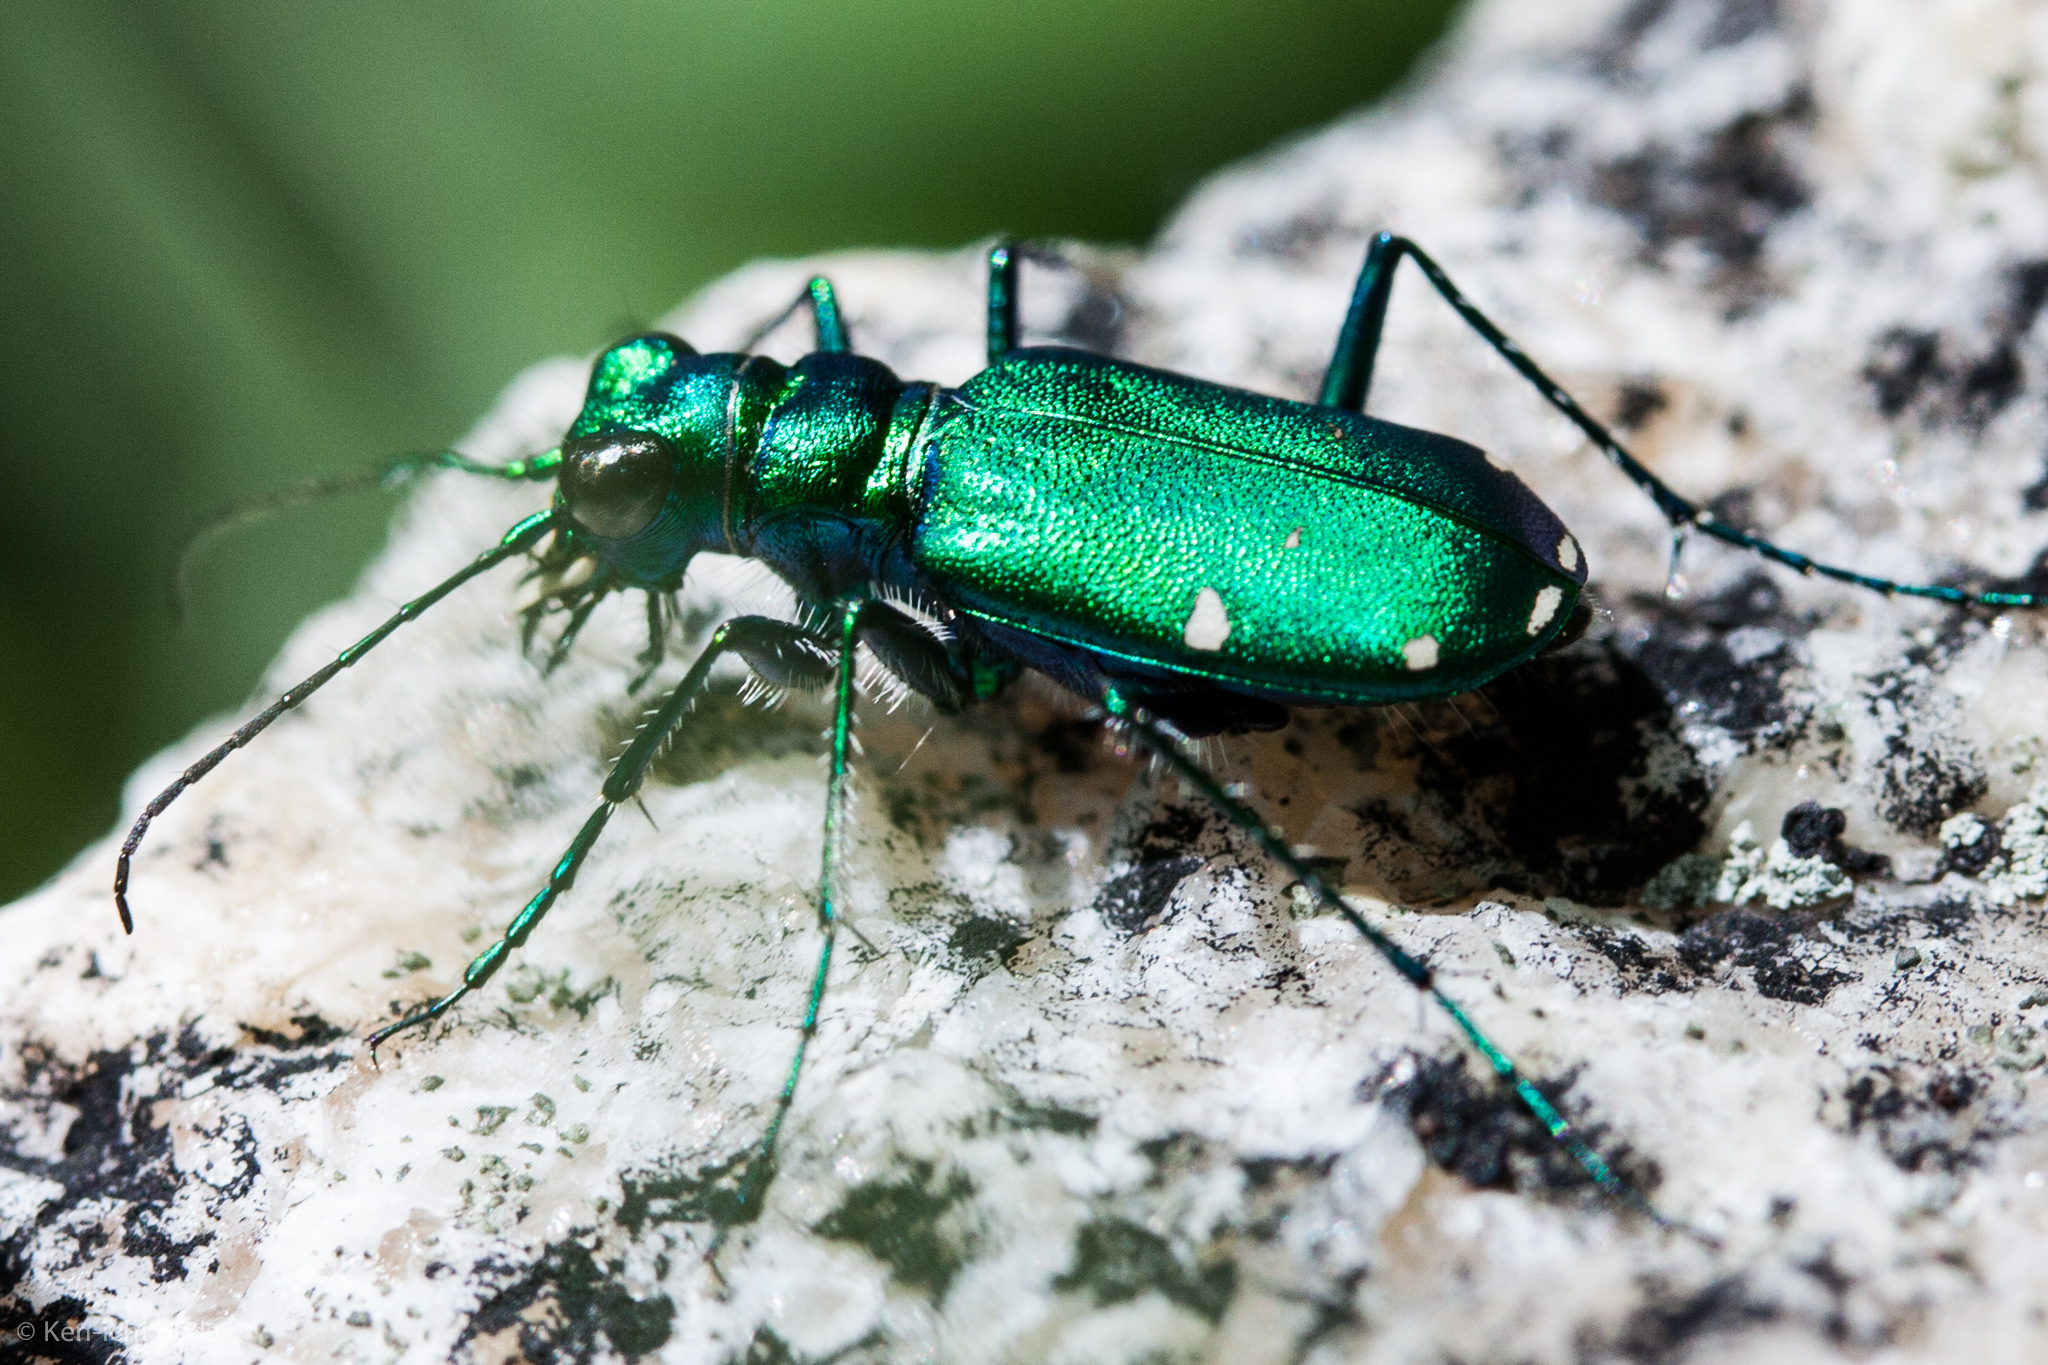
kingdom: Animalia
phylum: Arthropoda
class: Insecta
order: Coleoptera
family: Carabidae
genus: Cicindela
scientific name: Cicindela sexguttata
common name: Six-spotted tiger beetle
